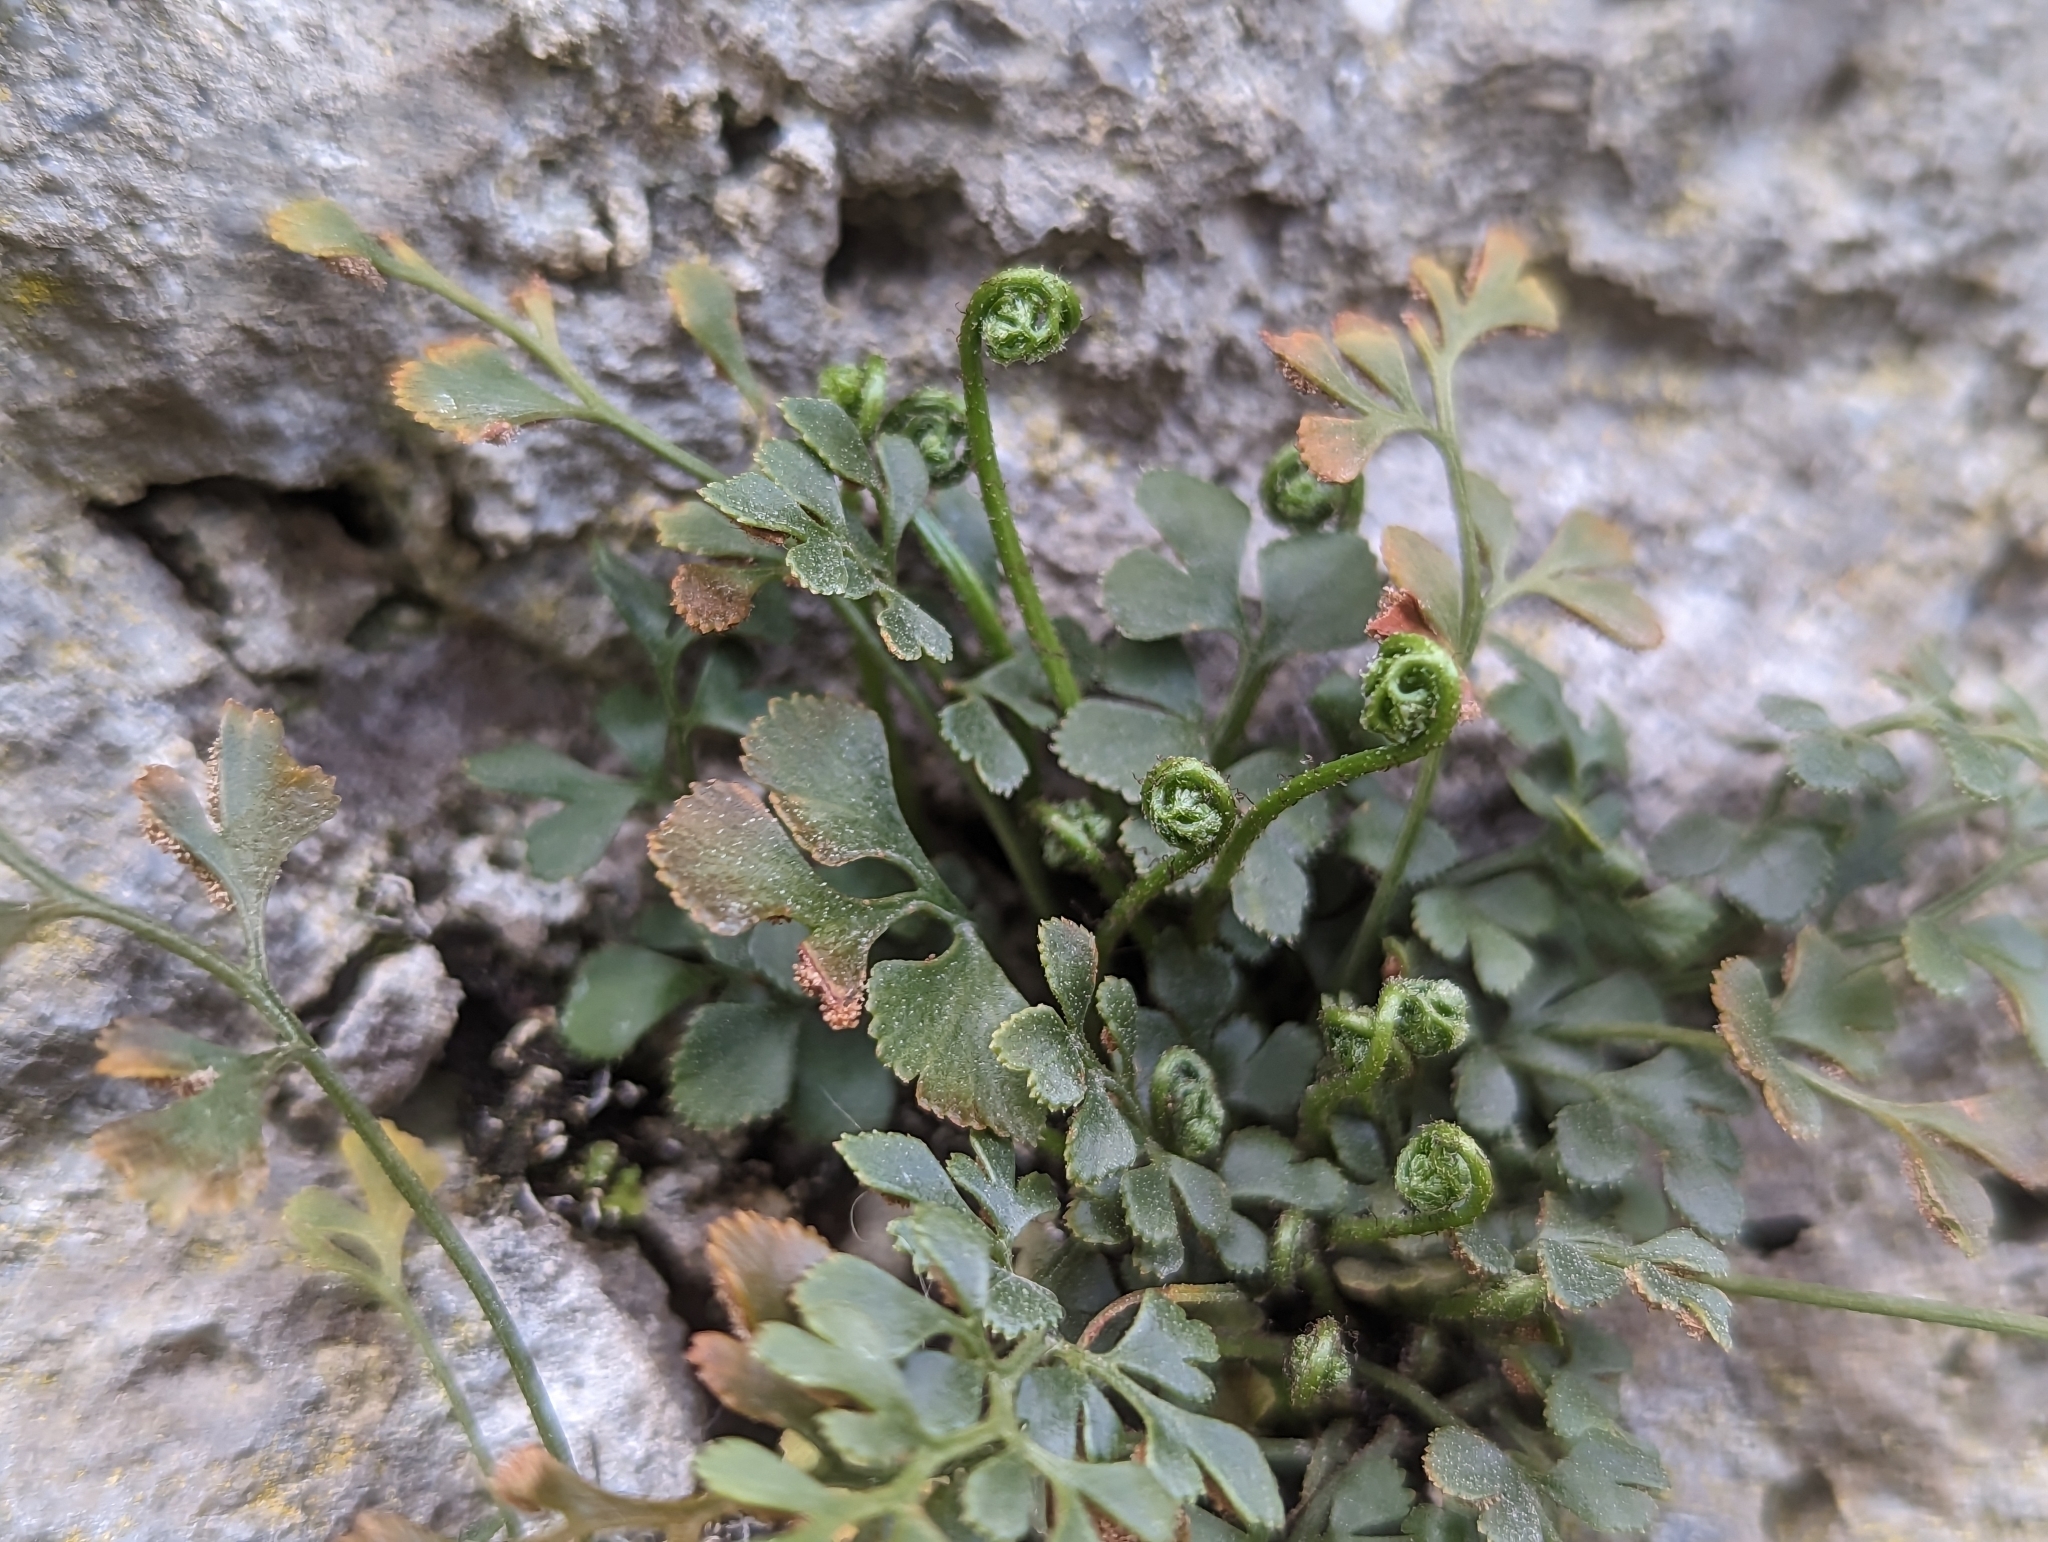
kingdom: Plantae
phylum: Tracheophyta
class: Polypodiopsida
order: Polypodiales
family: Aspleniaceae
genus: Asplenium
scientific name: Asplenium ruta-muraria
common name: Wall-rue
